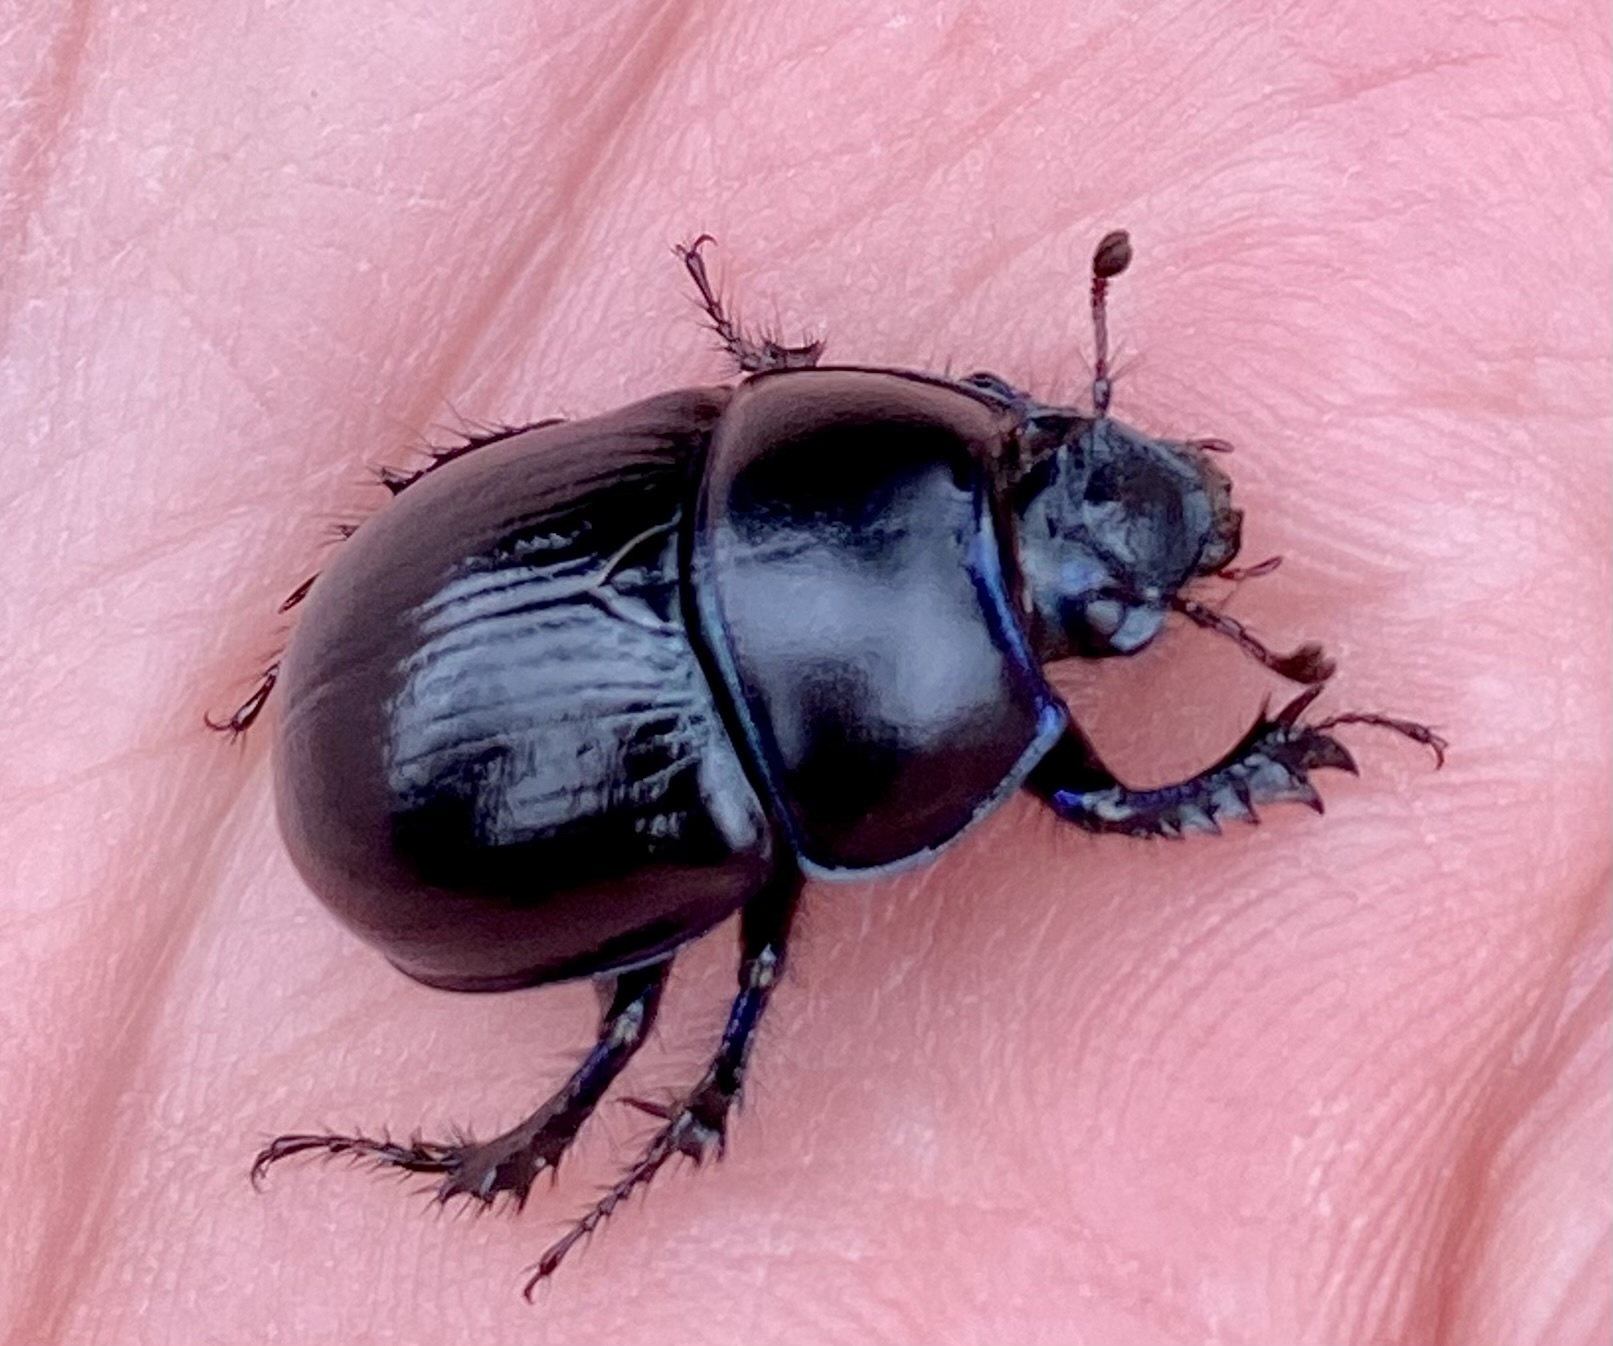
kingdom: Animalia
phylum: Arthropoda
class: Insecta
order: Coleoptera
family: Geotrupidae
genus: Anoplotrupes
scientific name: Anoplotrupes stercorosus
